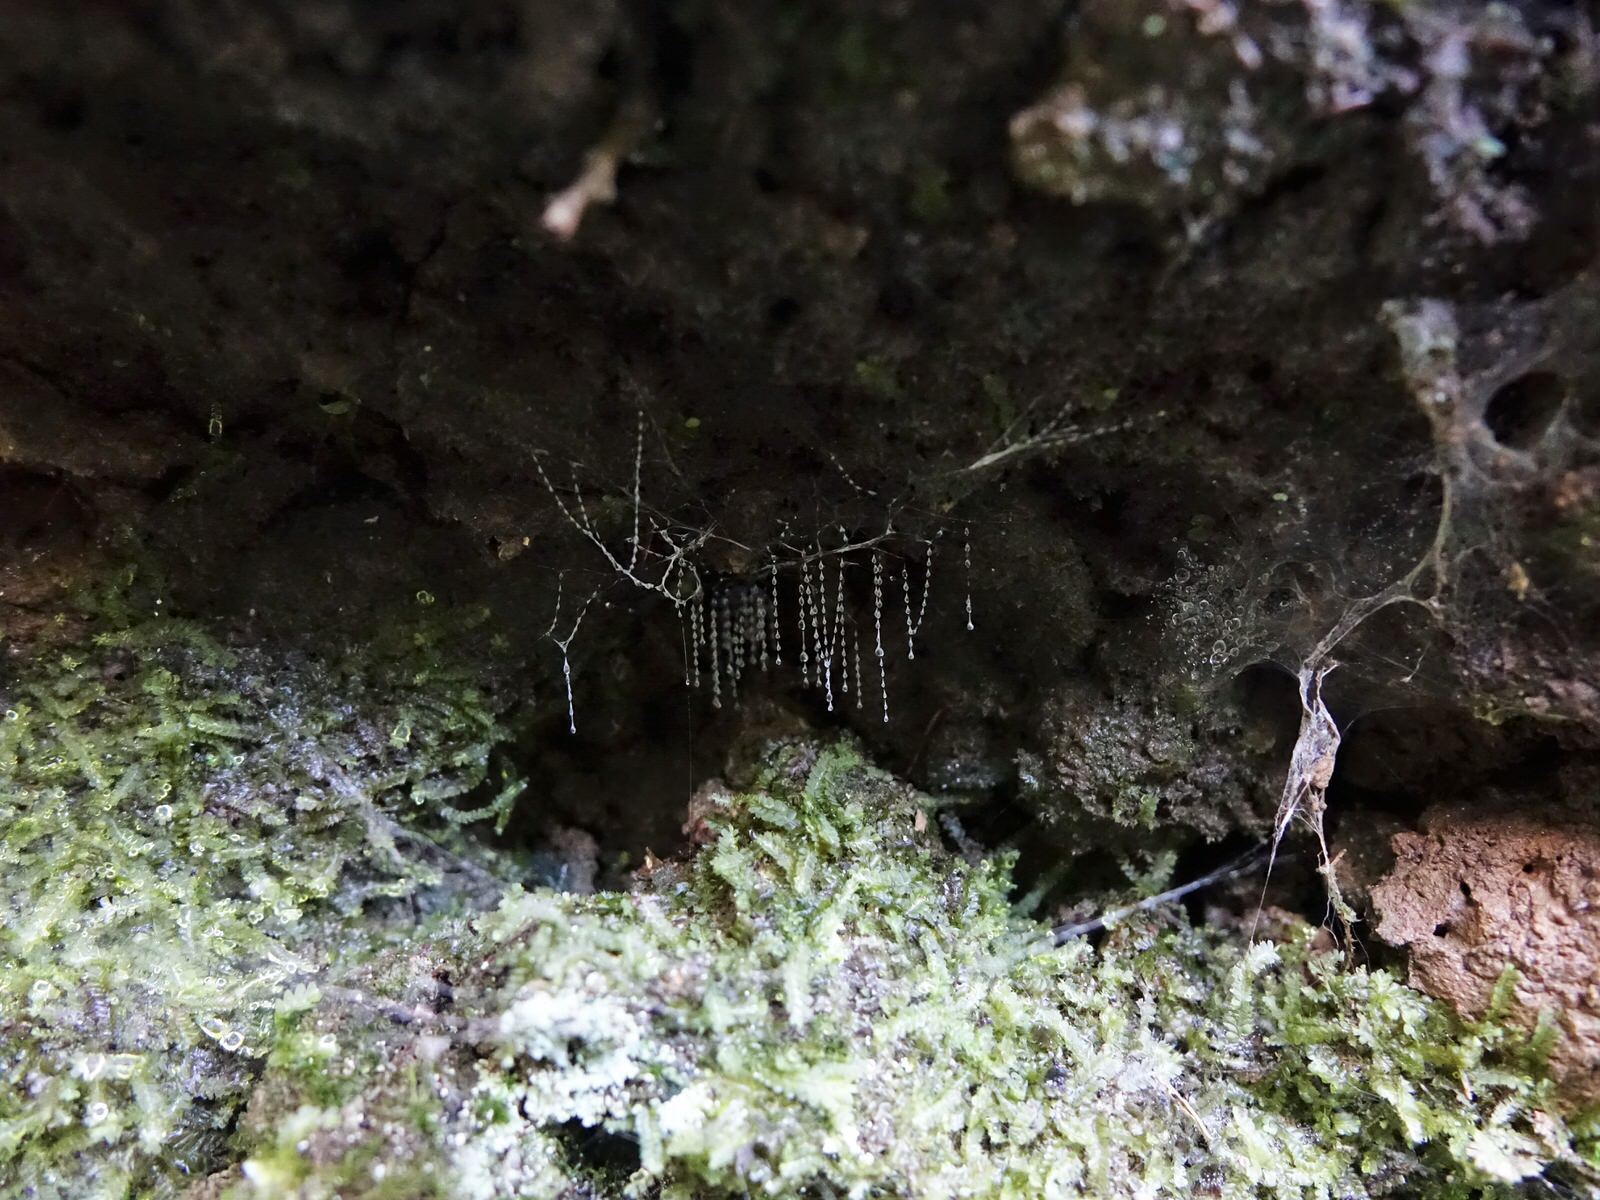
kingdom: Animalia
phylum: Arthropoda
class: Insecta
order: Diptera
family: Keroplatidae
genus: Arachnocampa
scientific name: Arachnocampa luminosa
